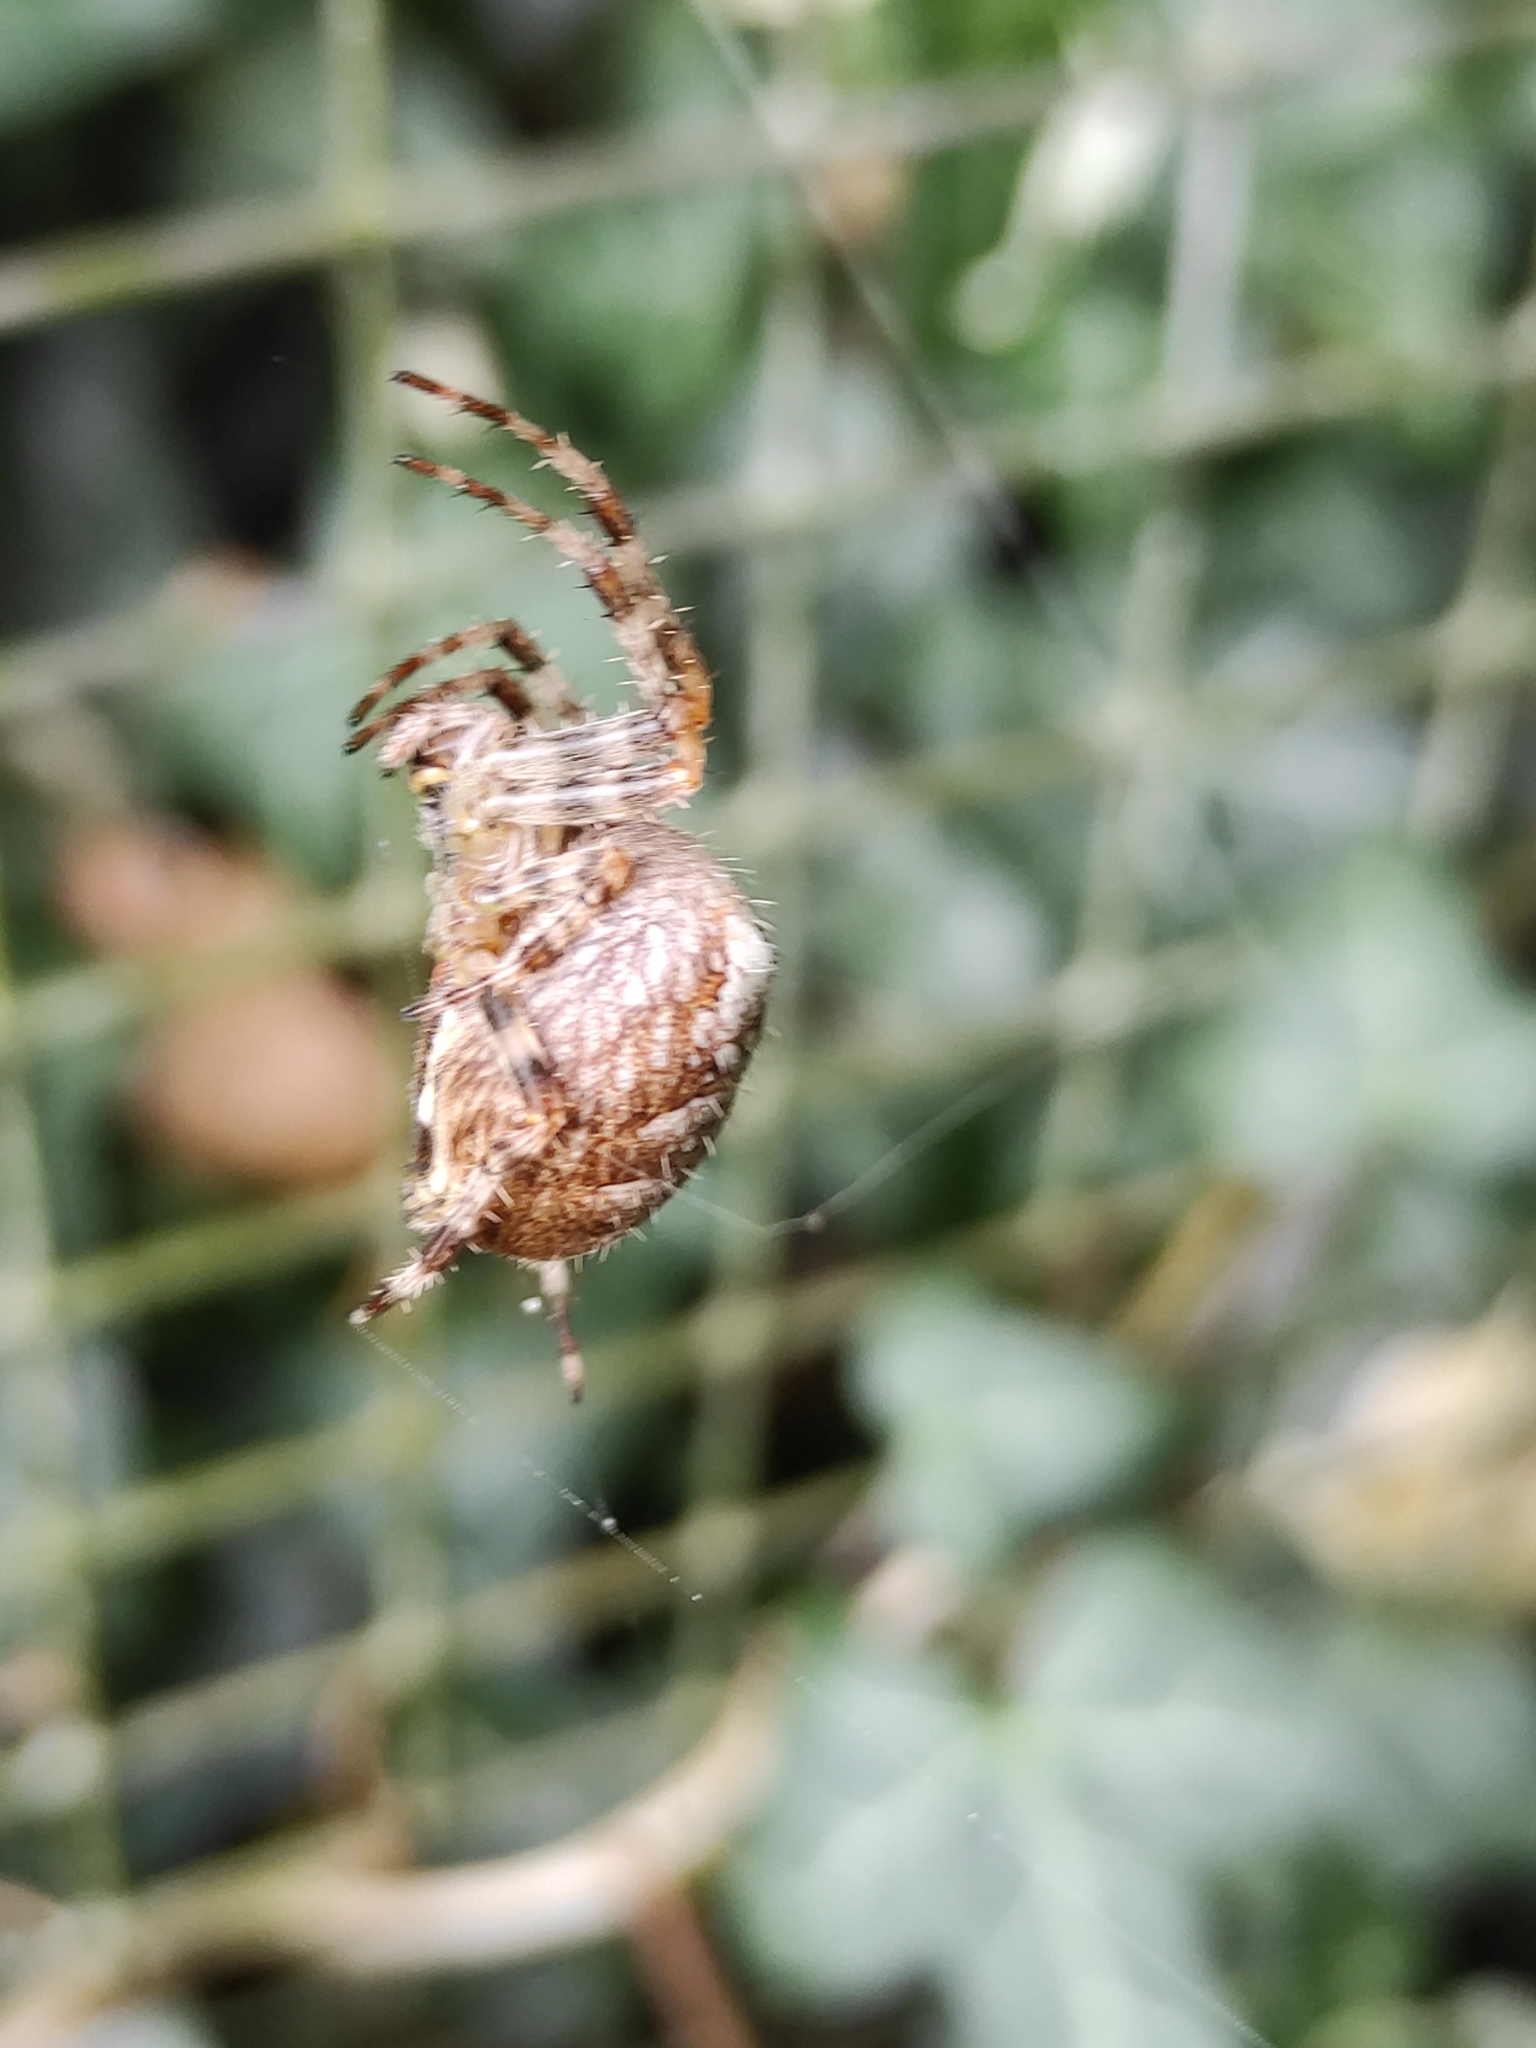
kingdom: Animalia
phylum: Arthropoda
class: Arachnida
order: Araneae
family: Araneidae
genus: Araneus
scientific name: Araneus diadematus
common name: Cross orbweaver
